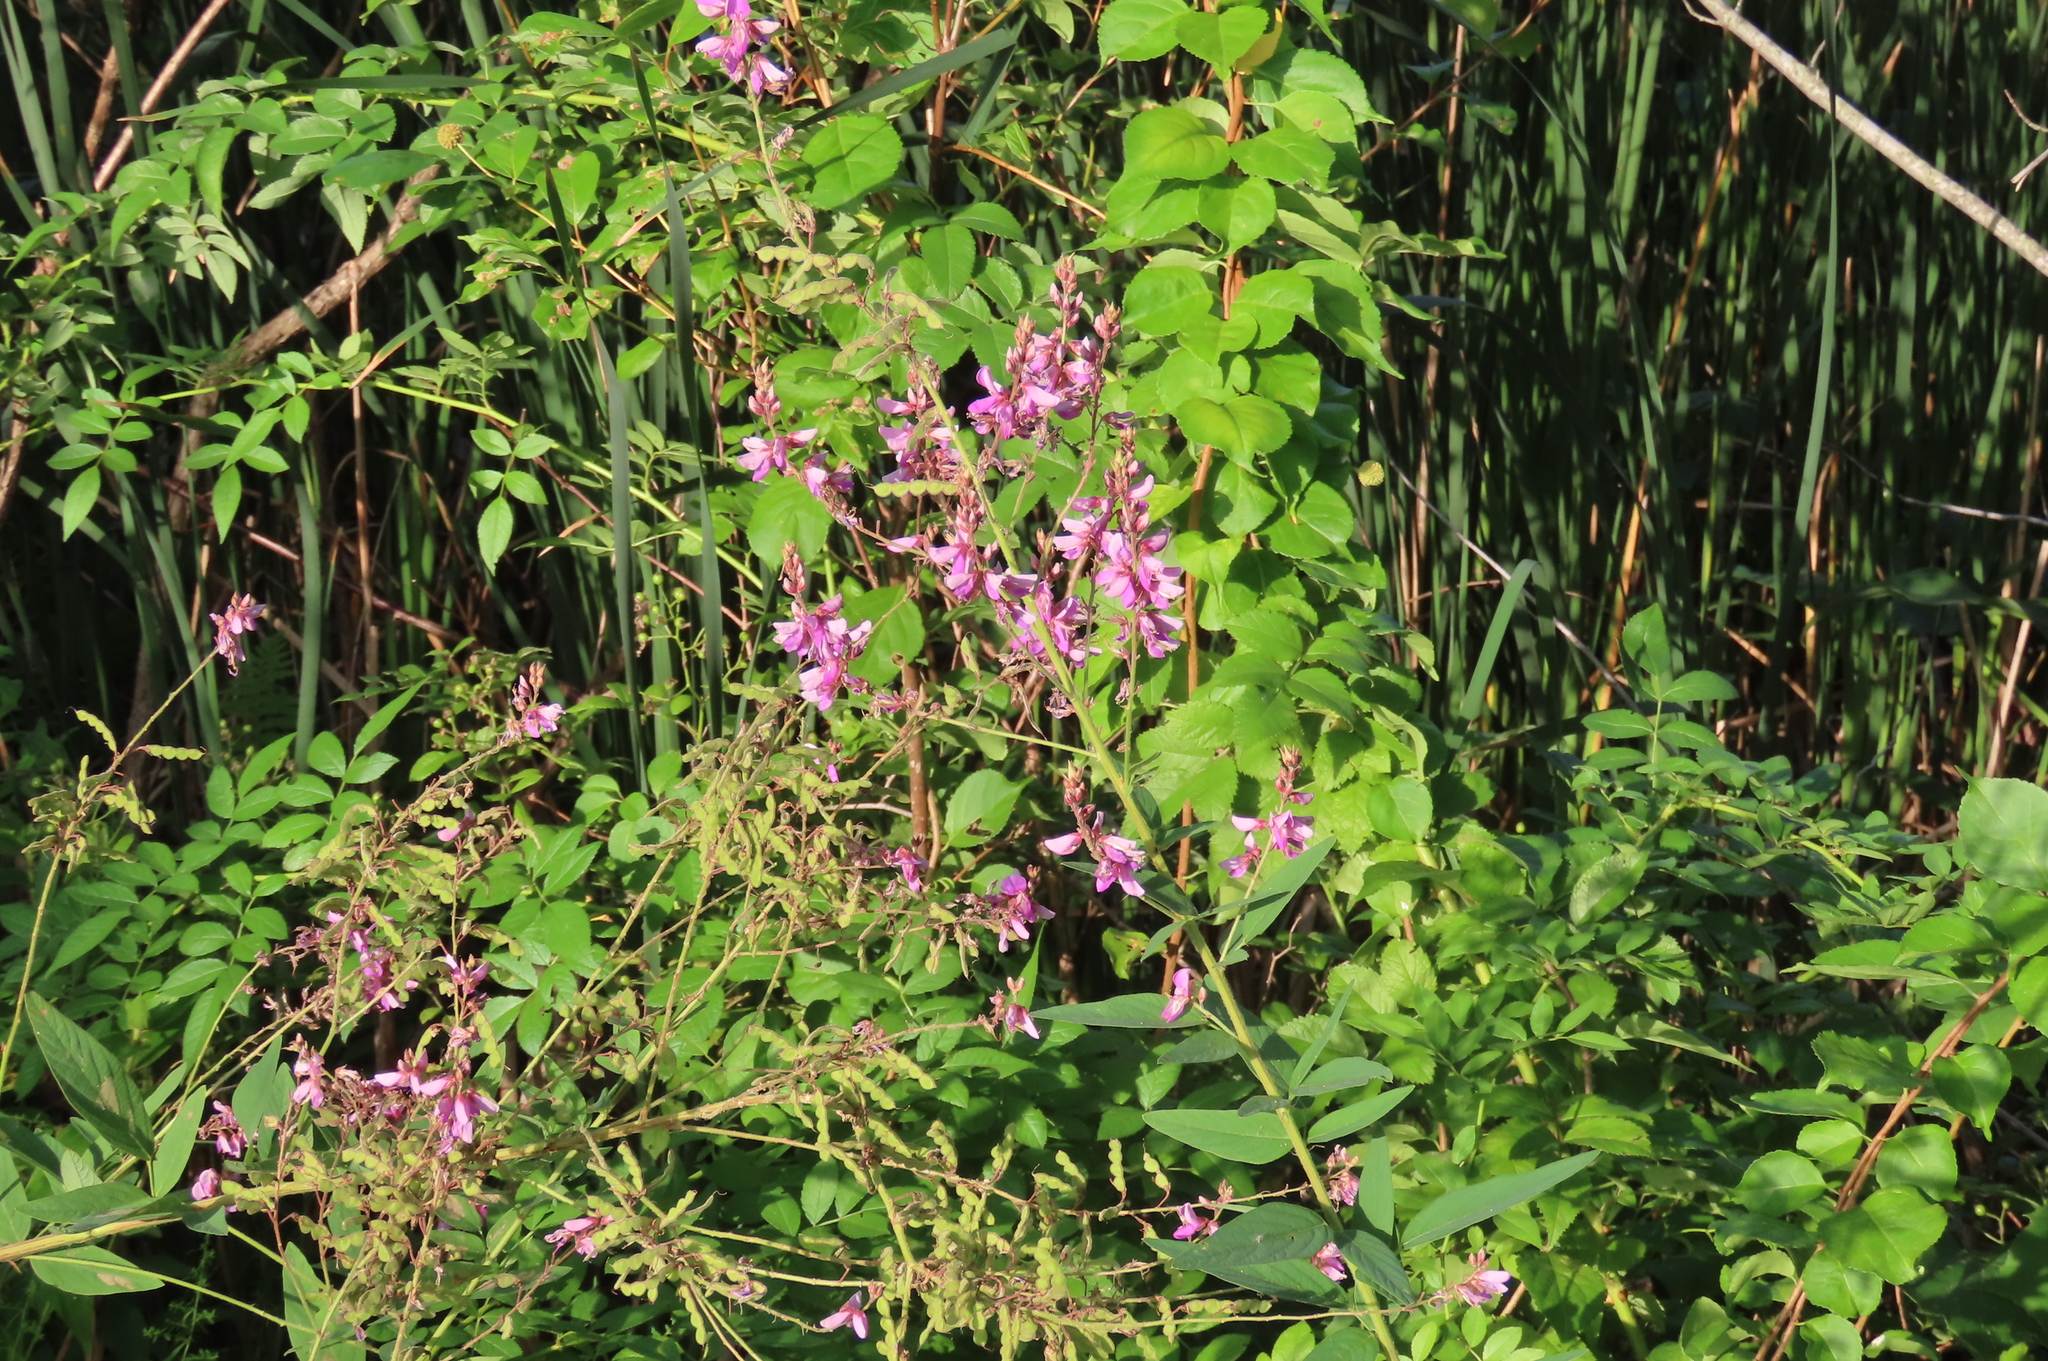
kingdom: Plantae
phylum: Tracheophyta
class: Magnoliopsida
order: Fabales
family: Fabaceae
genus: Desmodium
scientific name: Desmodium canadense
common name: Canada tick-trefoil
